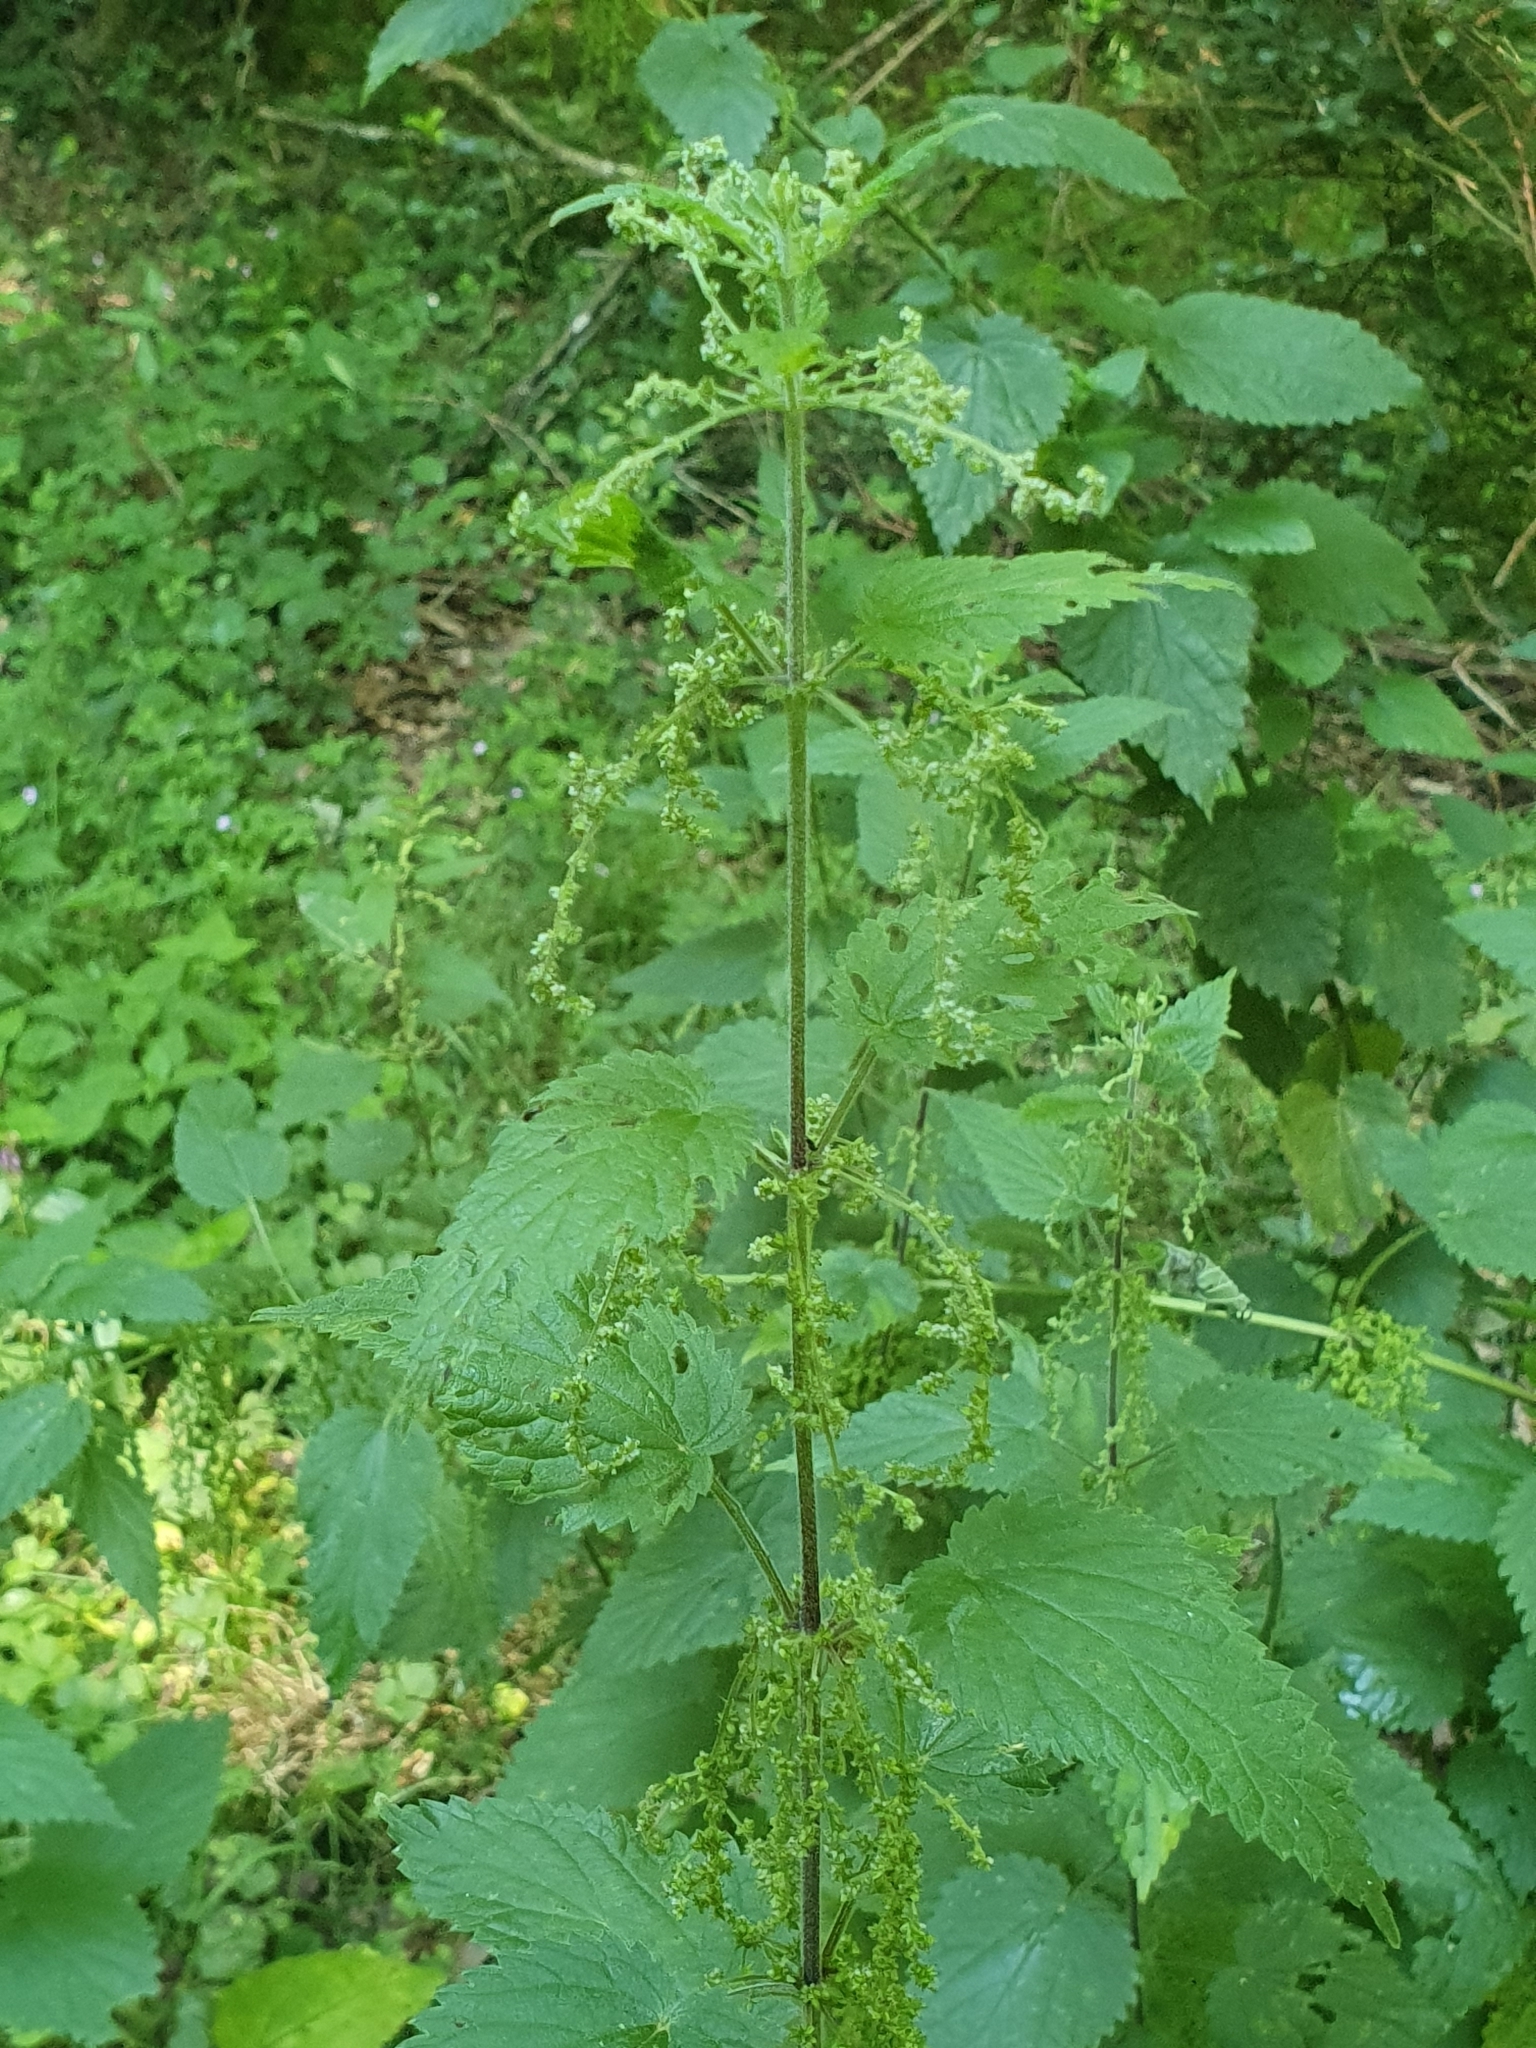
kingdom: Plantae
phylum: Tracheophyta
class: Magnoliopsida
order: Rosales
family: Urticaceae
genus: Urtica
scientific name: Urtica dioica
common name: Common nettle
